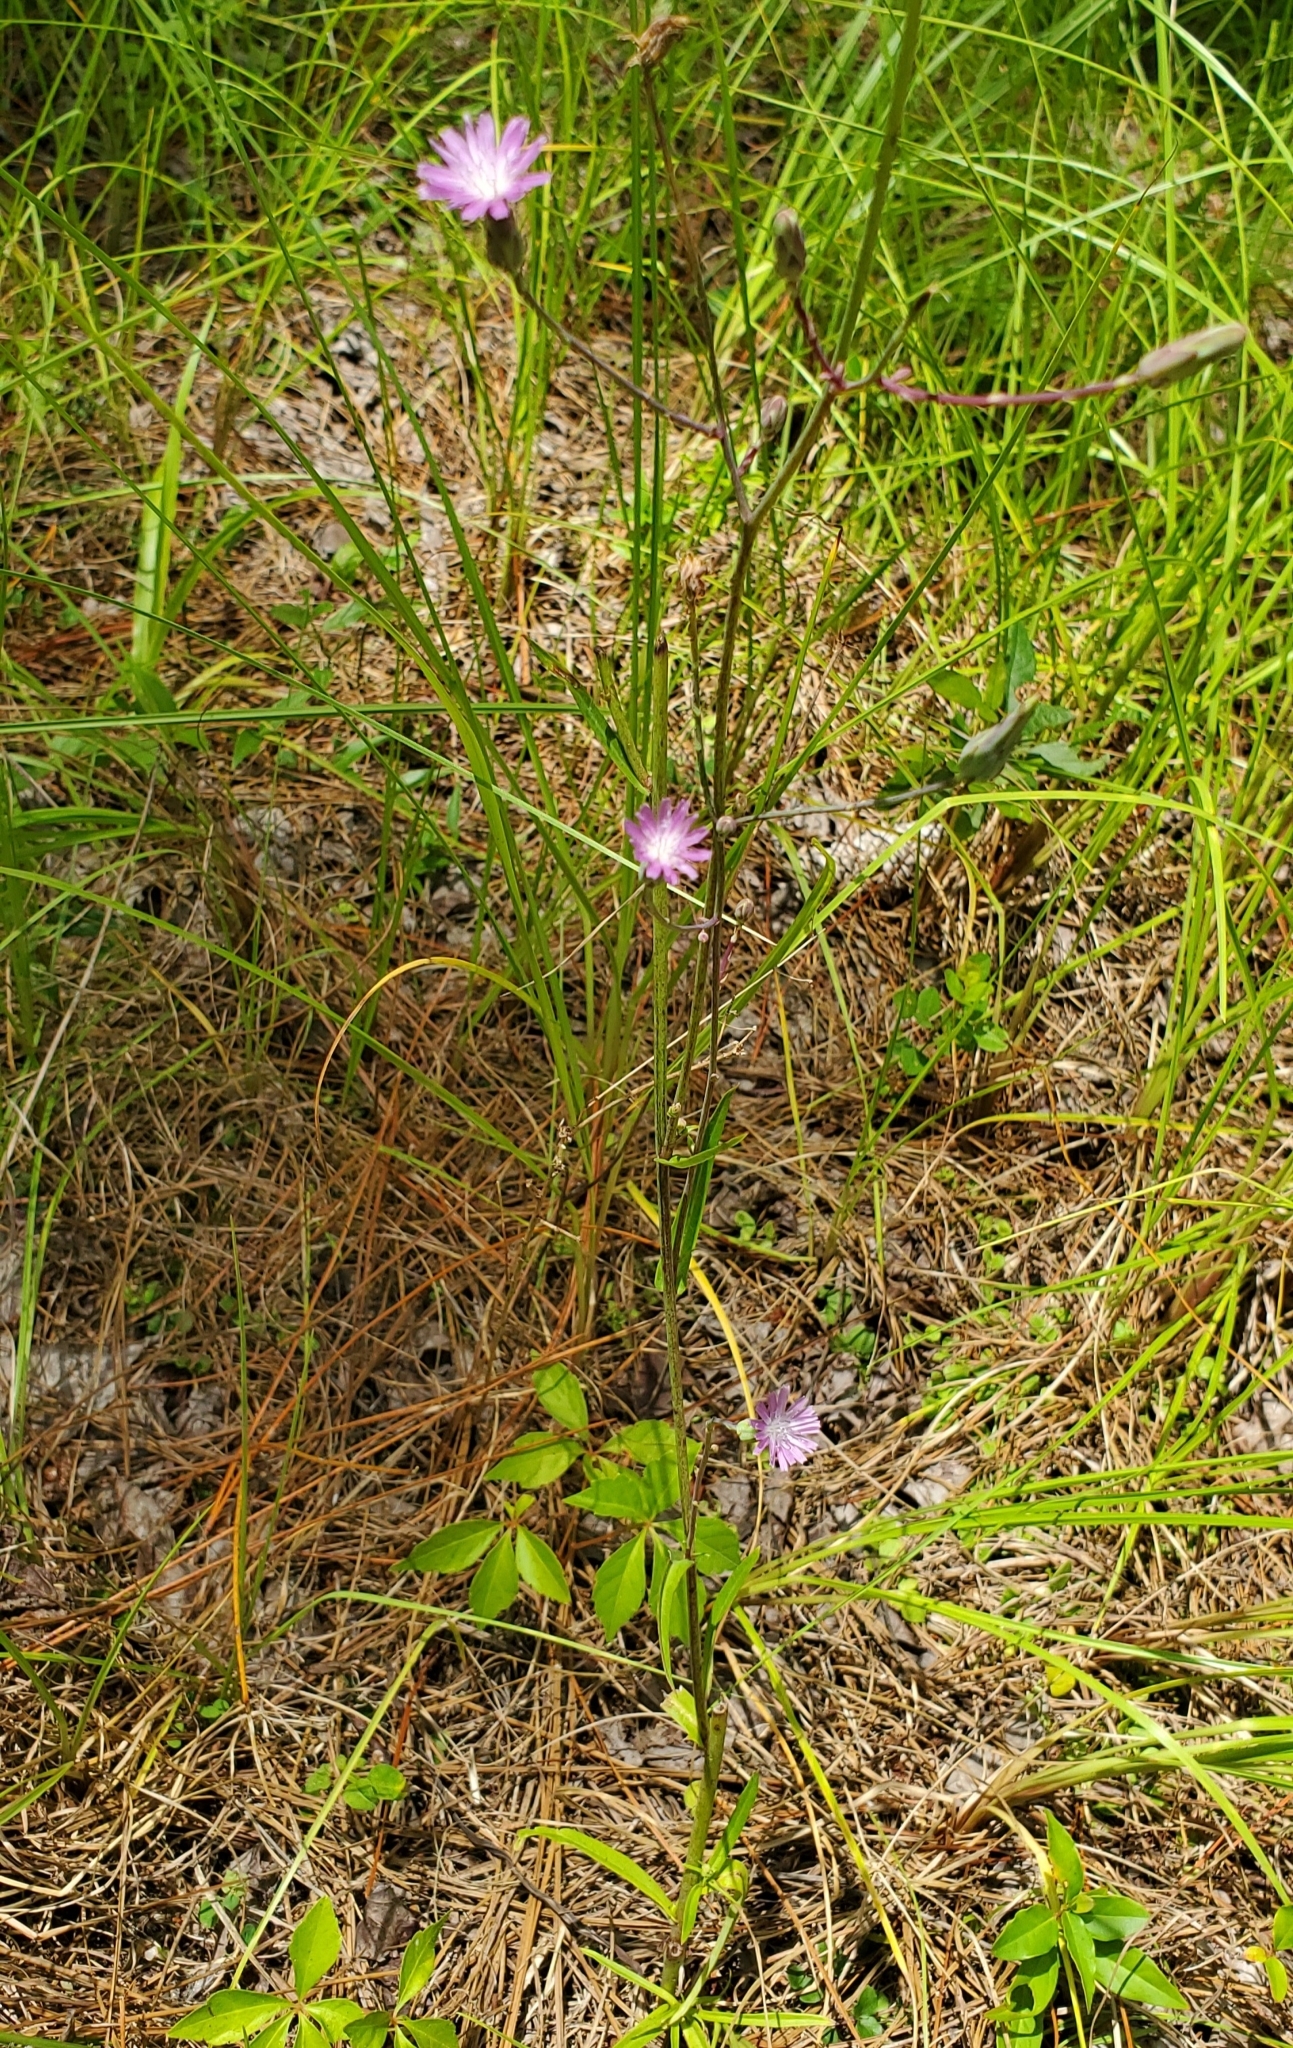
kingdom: Plantae
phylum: Tracheophyta
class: Magnoliopsida
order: Asterales
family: Asteraceae
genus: Lactuca
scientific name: Lactuca graminifolia
